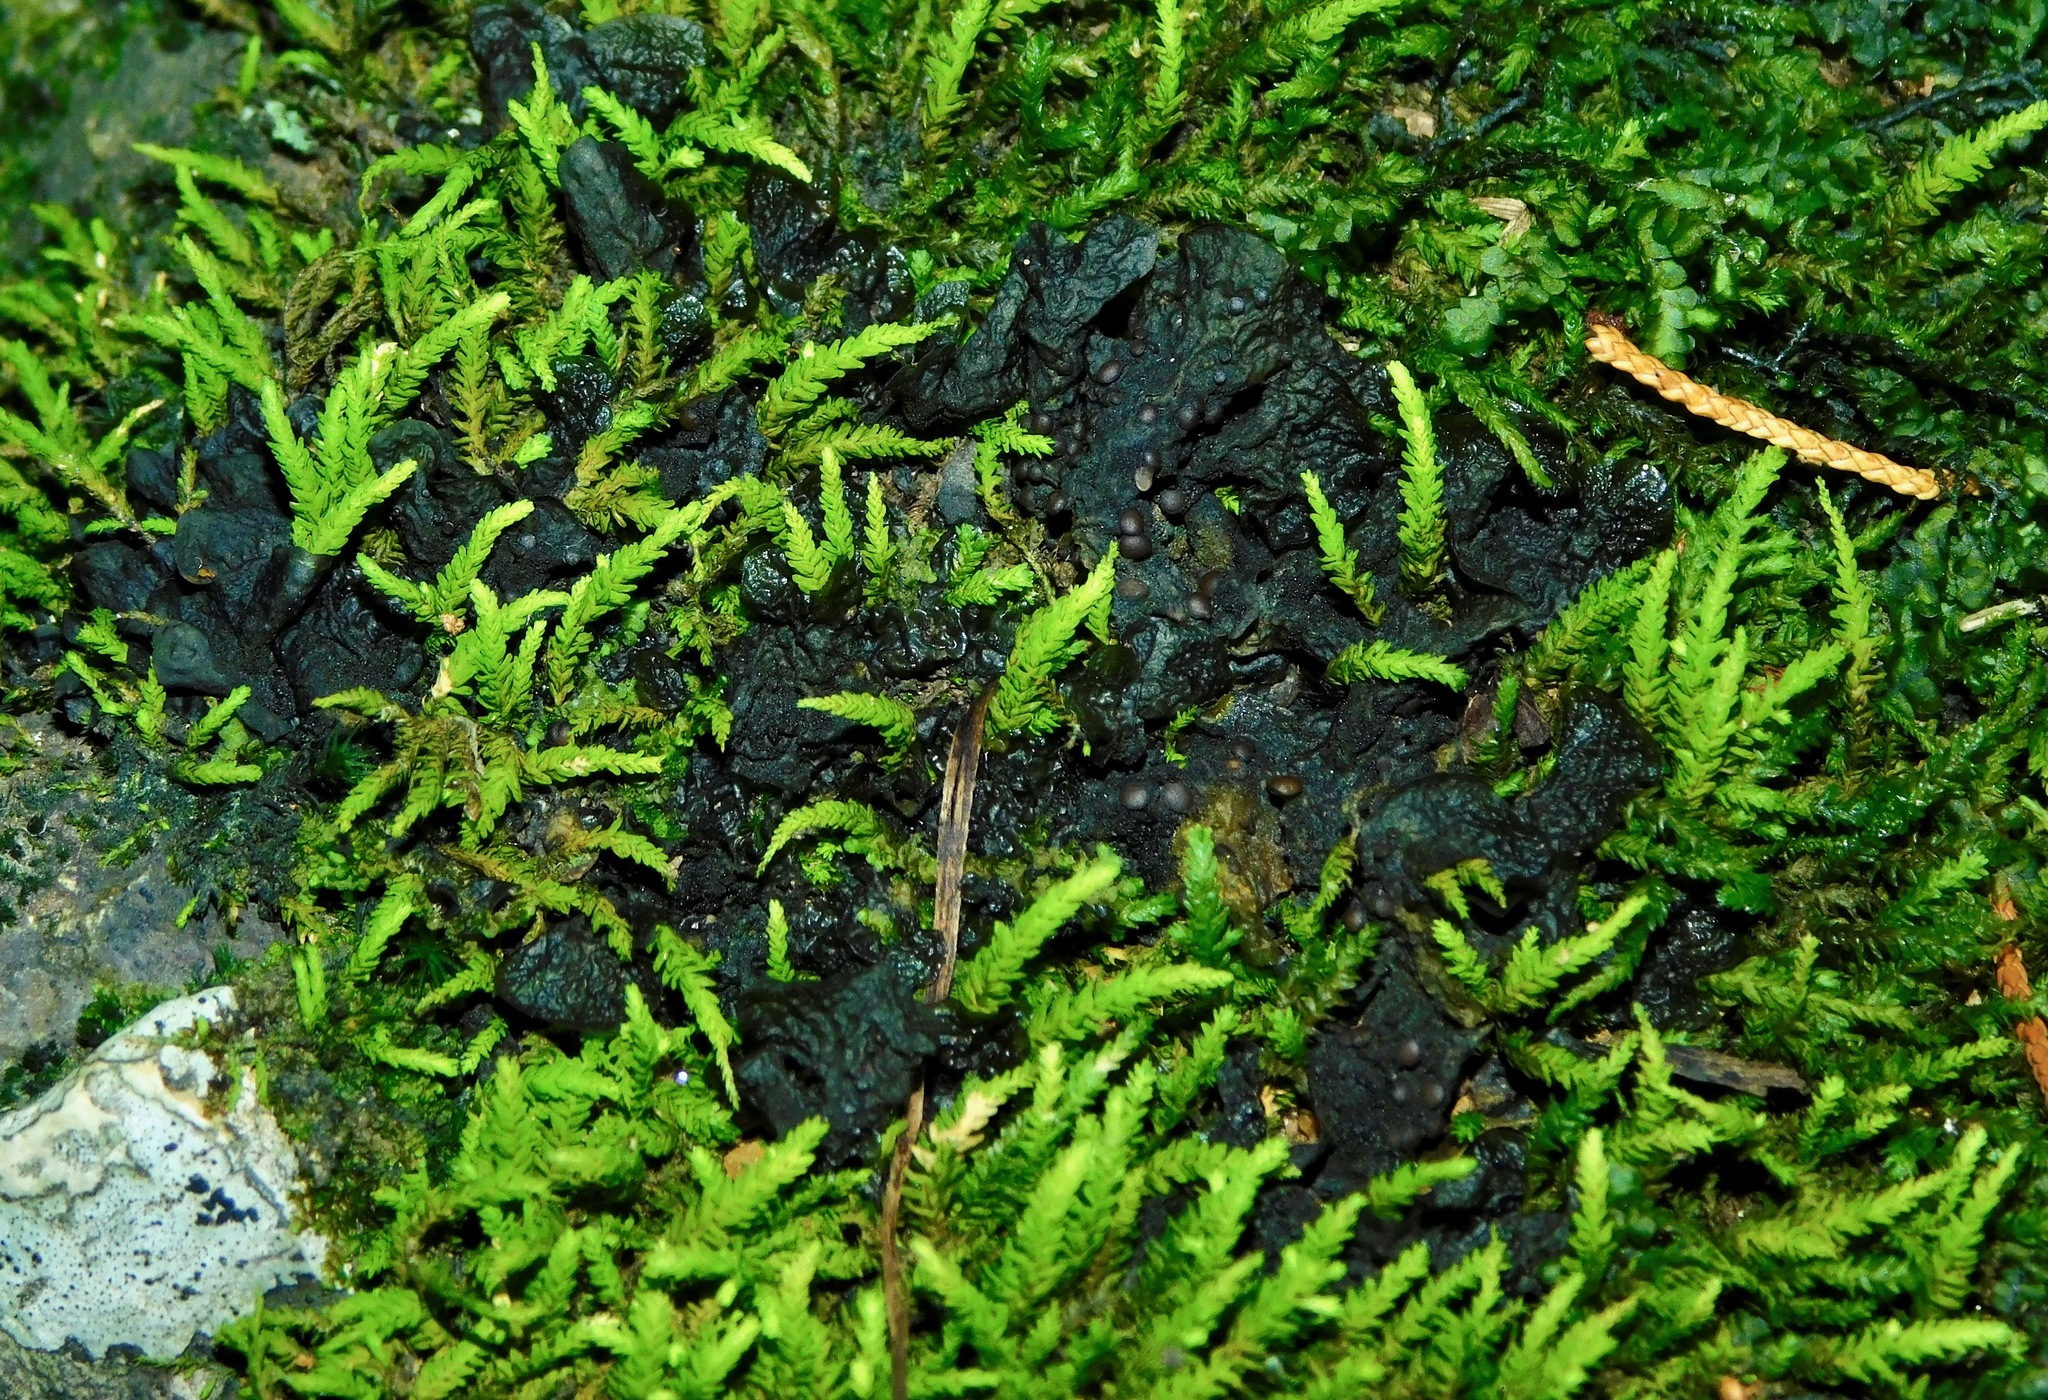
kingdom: Fungi
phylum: Ascomycota
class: Lecanoromycetes
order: Peltigerales
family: Collemataceae
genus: Collema
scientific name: Collema curtisporum
